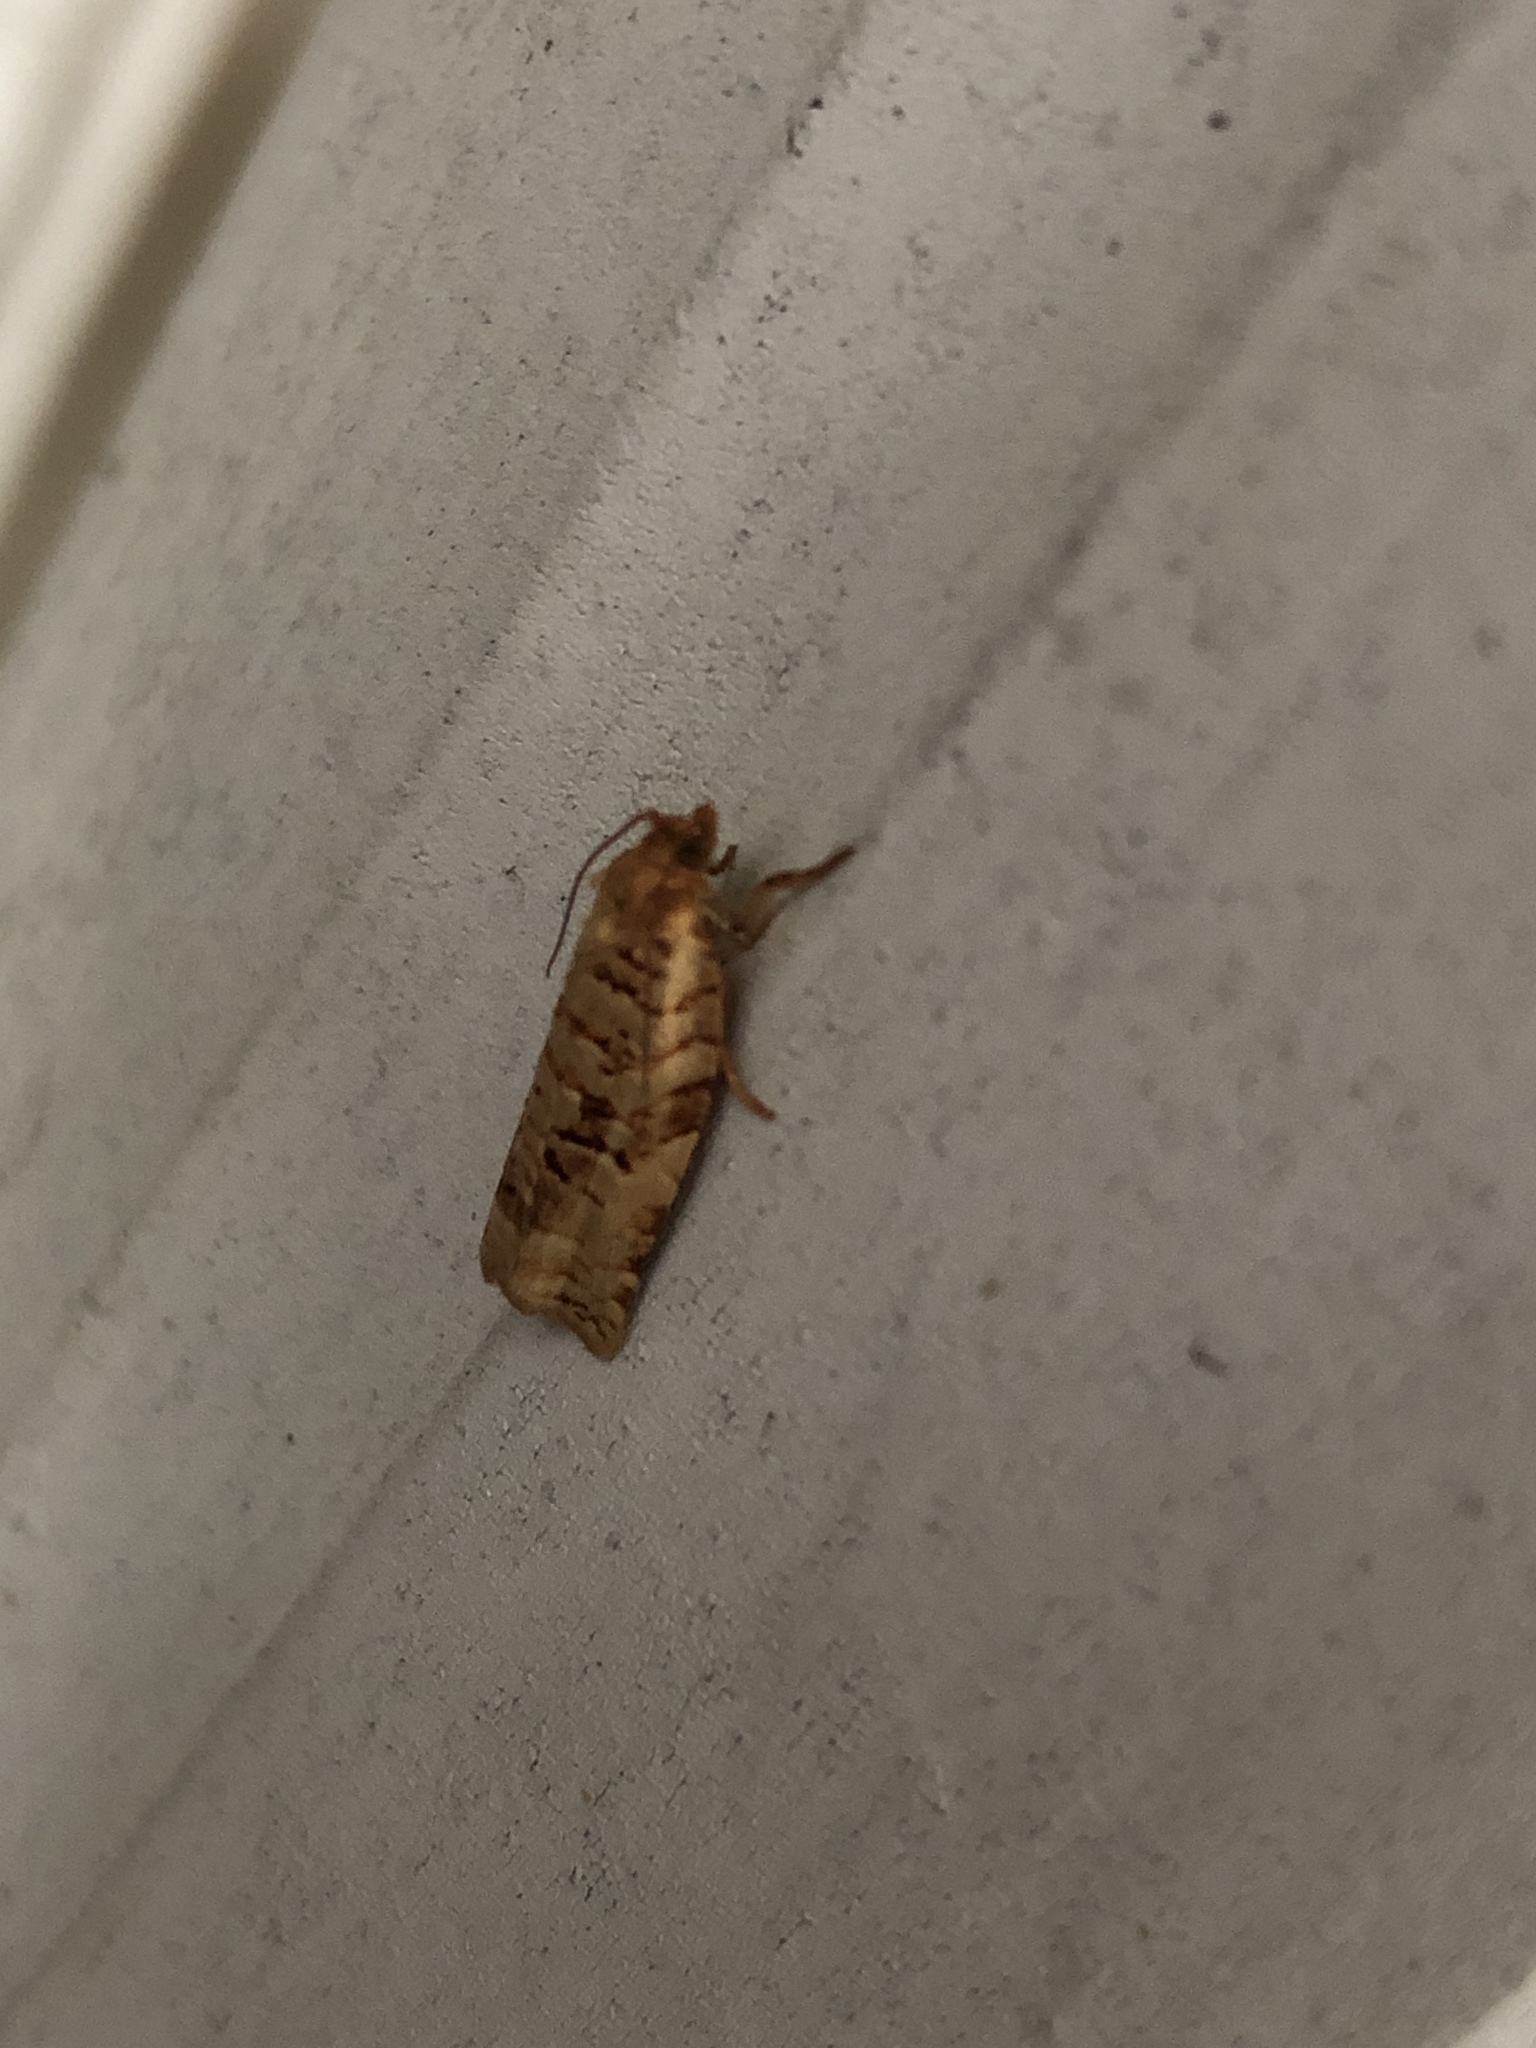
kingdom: Animalia
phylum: Arthropoda
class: Insecta
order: Lepidoptera
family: Tortricidae
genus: Archips
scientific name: Archips georgiana
